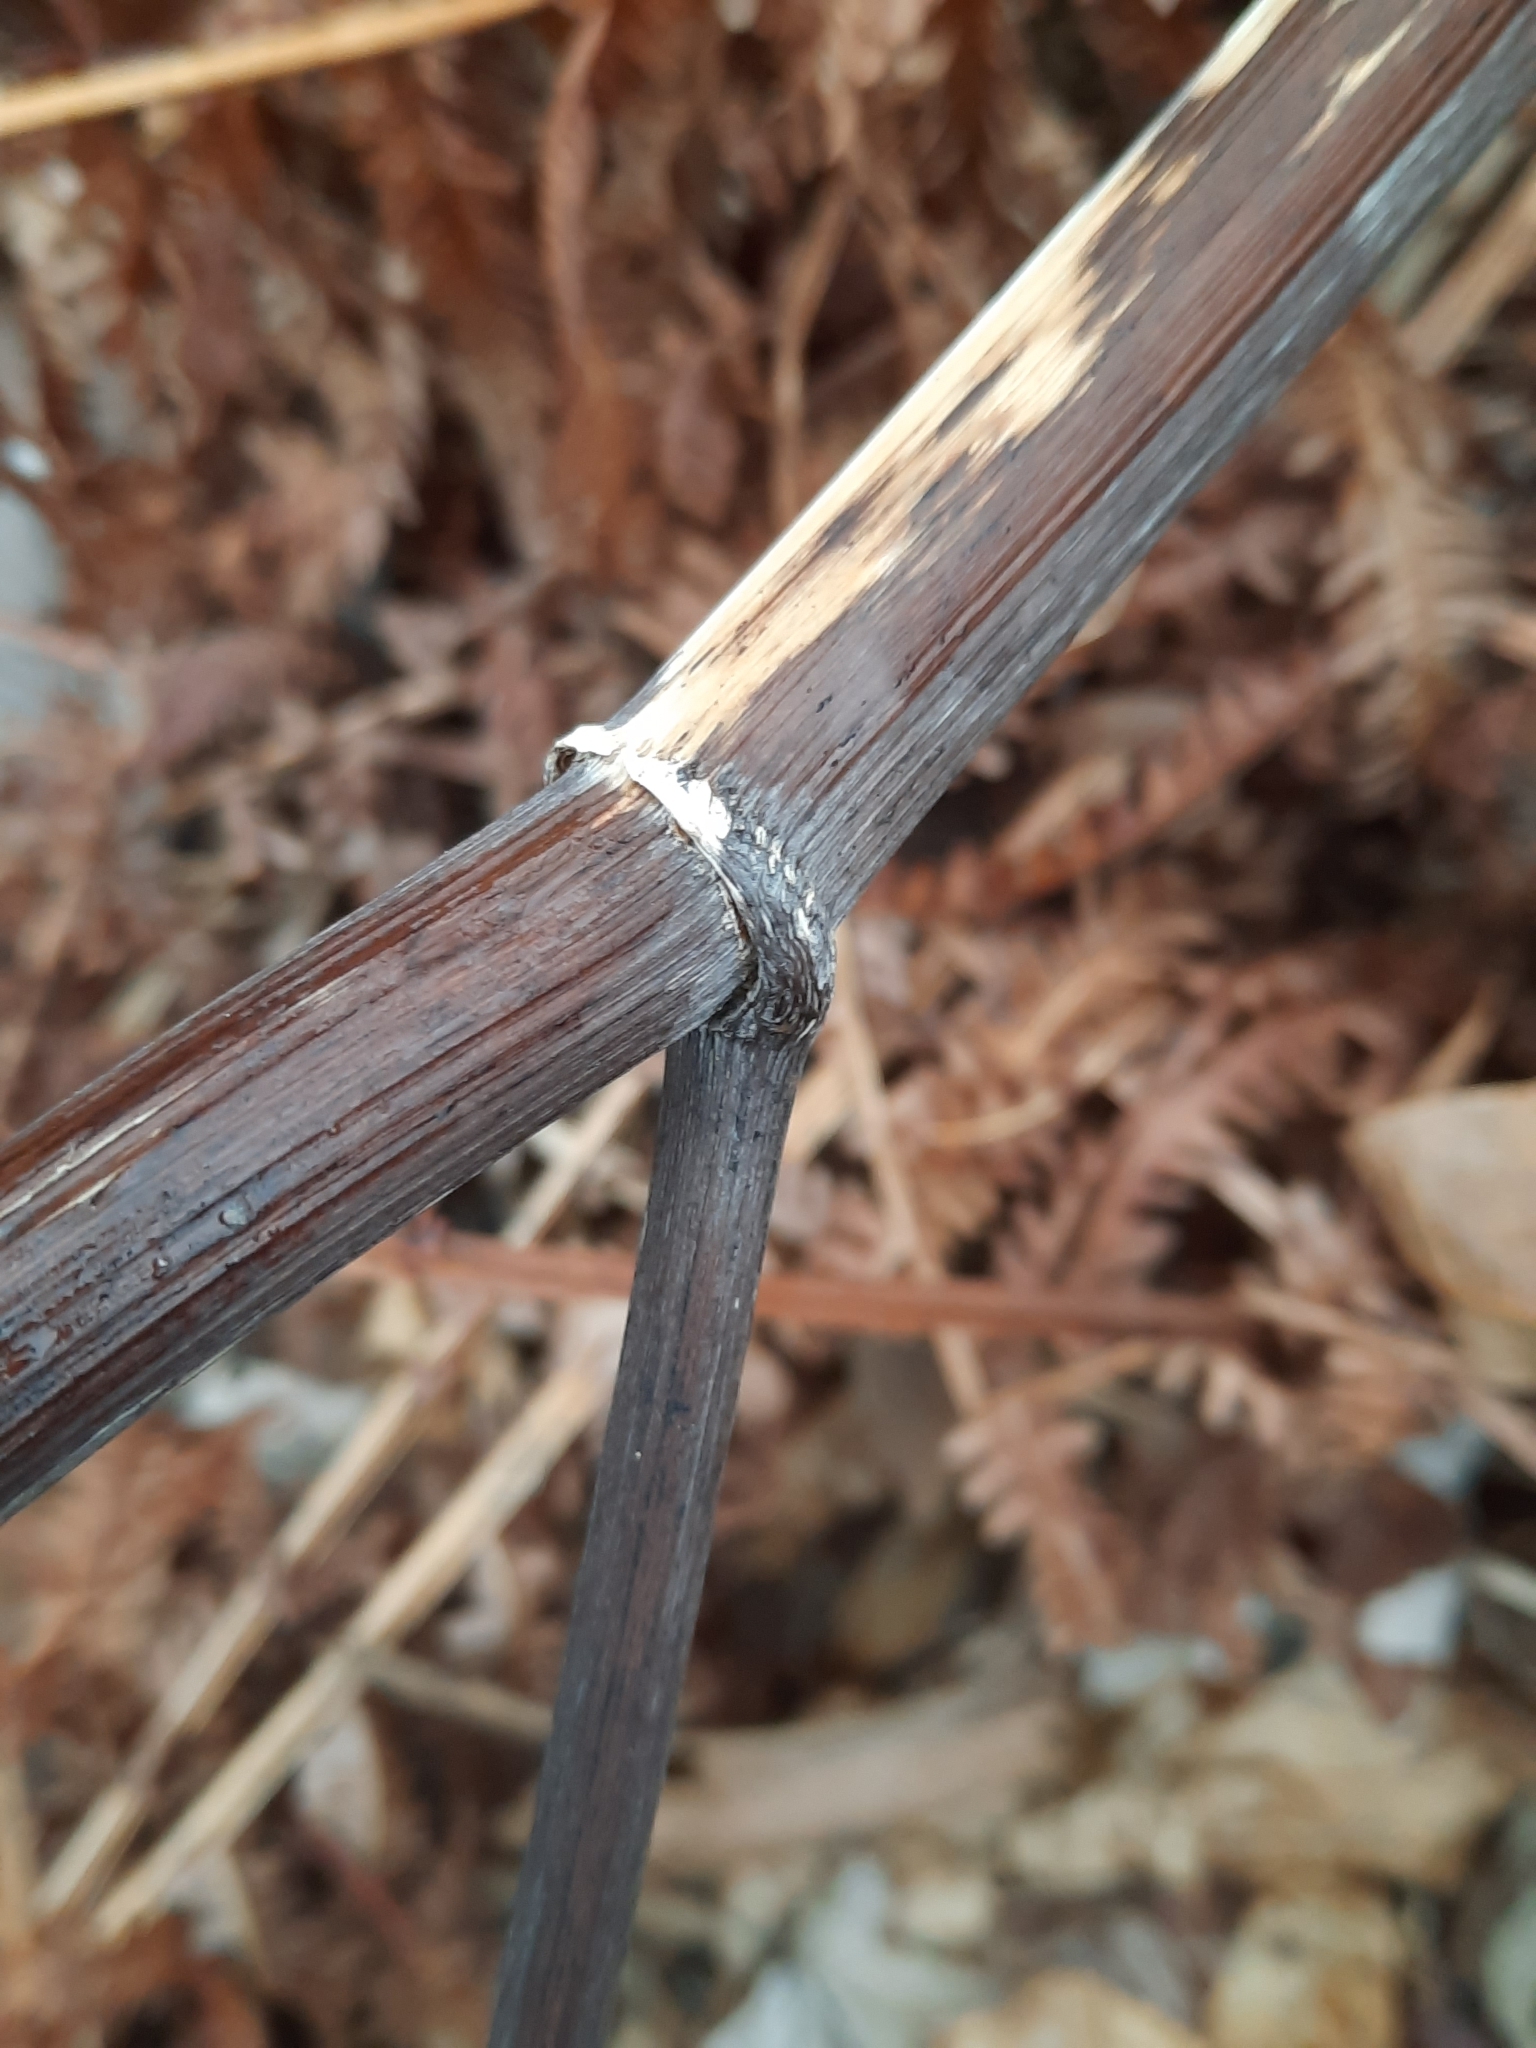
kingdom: Plantae
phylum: Tracheophyta
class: Magnoliopsida
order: Apiales
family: Apiaceae
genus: Angelica
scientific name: Angelica atropurpurea
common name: Great angelica
